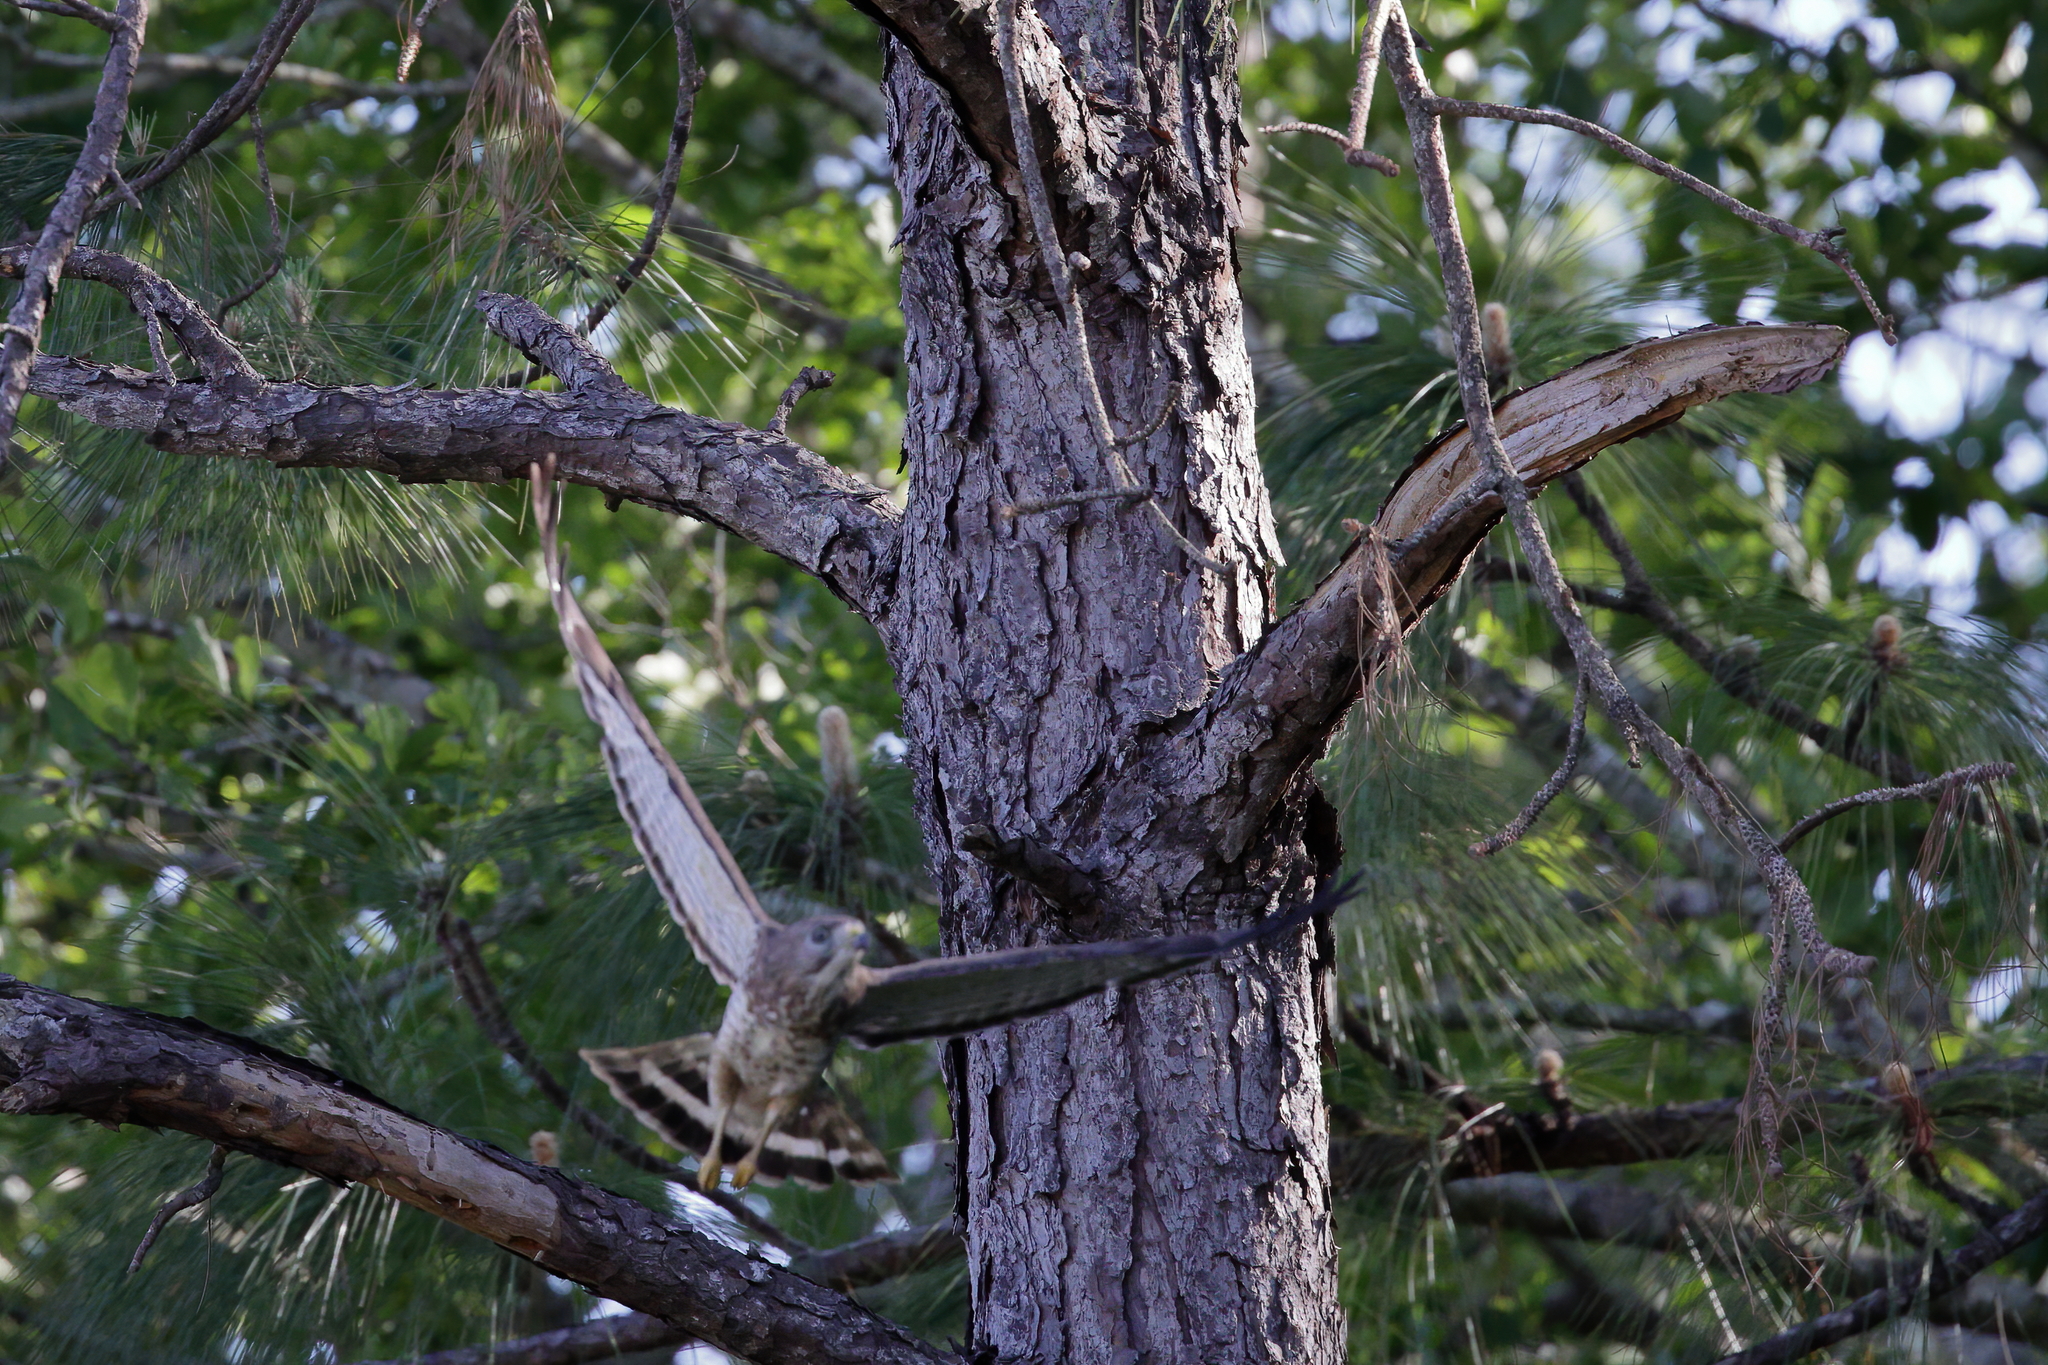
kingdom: Animalia
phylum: Chordata
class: Aves
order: Accipitriformes
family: Accipitridae
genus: Buteo
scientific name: Buteo platypterus
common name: Broad-winged hawk
